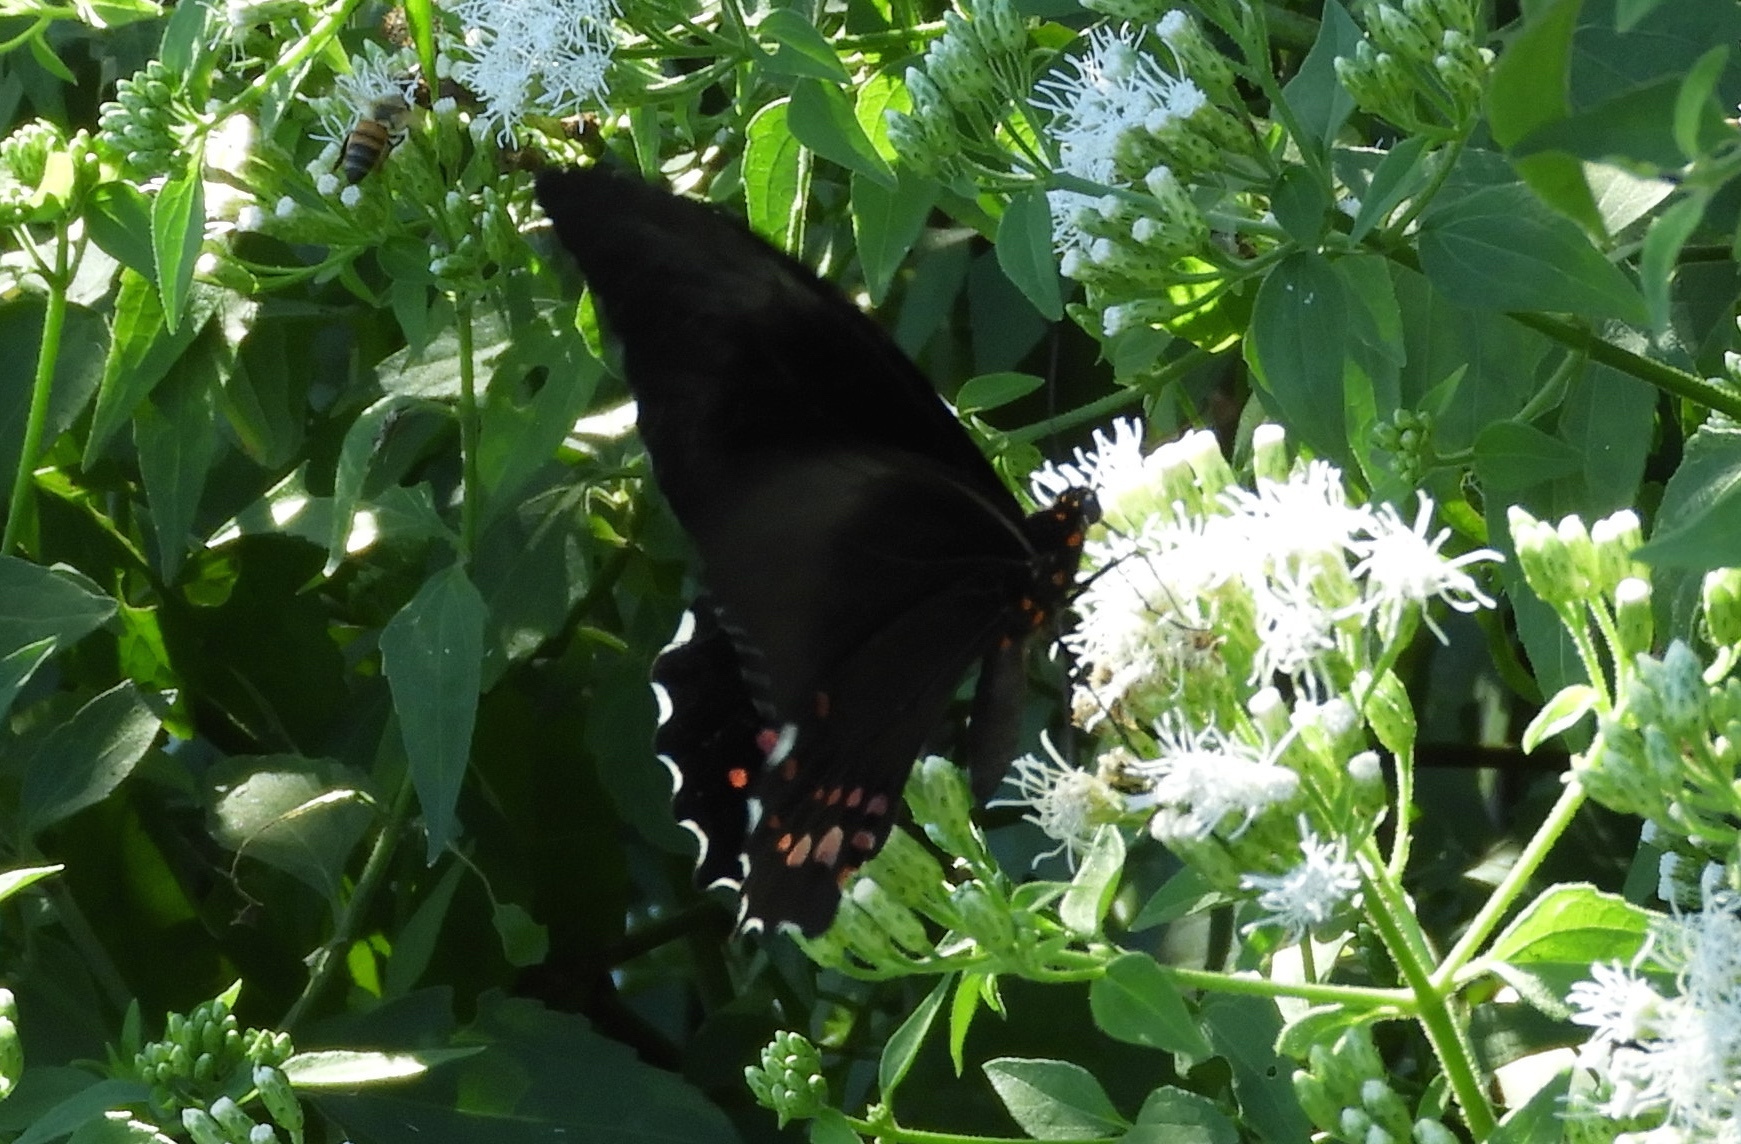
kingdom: Animalia
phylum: Arthropoda
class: Insecta
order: Lepidoptera
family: Papilionidae
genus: Heraclides
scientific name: Heraclides rogeri
